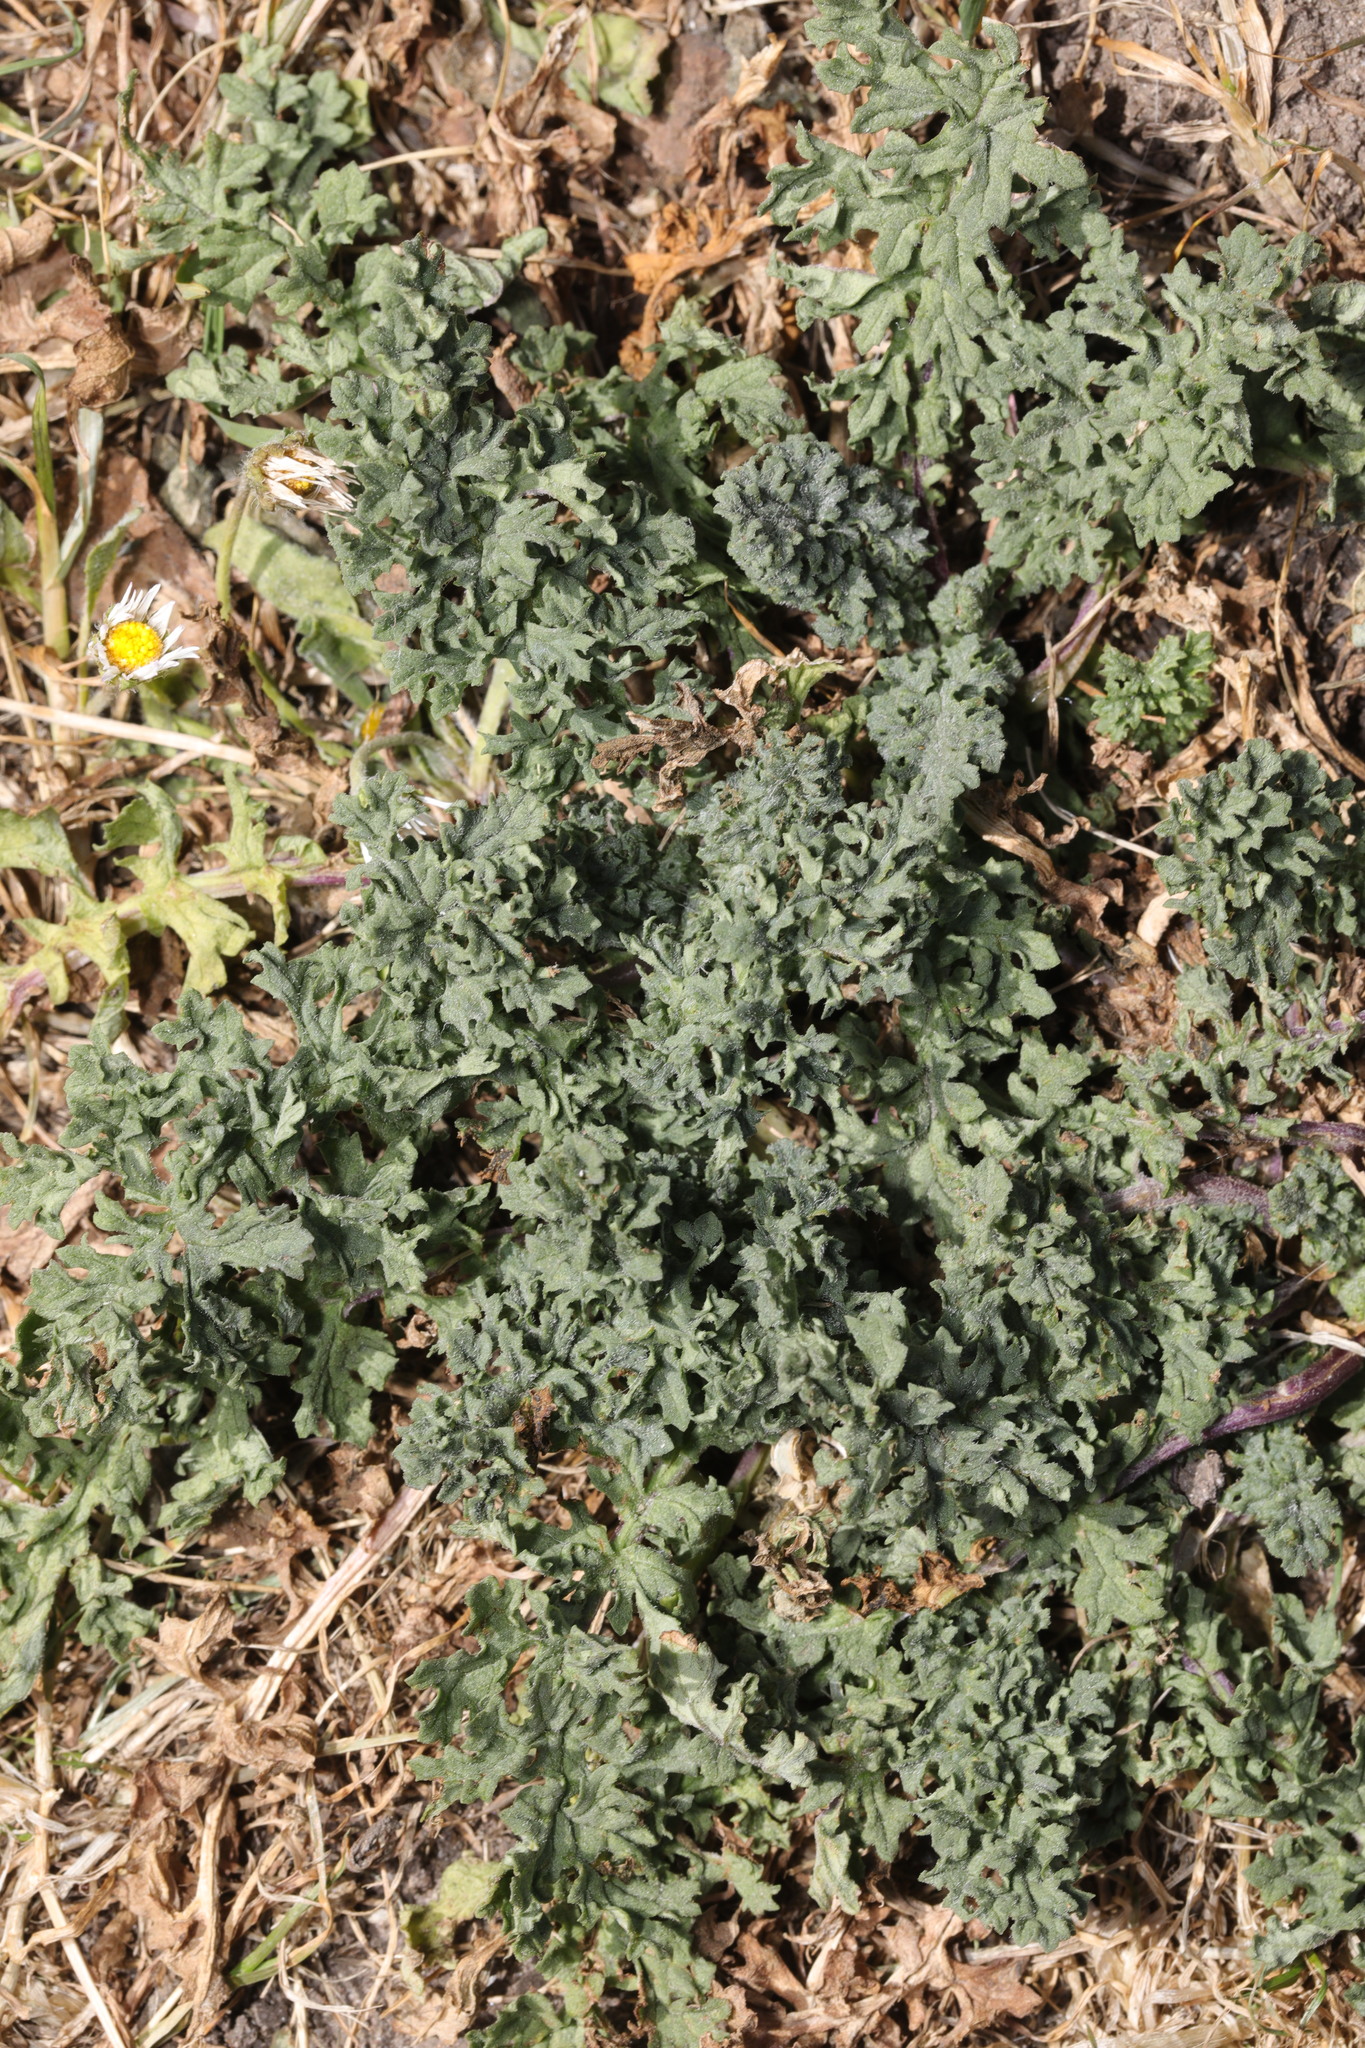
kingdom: Plantae
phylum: Tracheophyta
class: Magnoliopsida
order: Asterales
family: Asteraceae
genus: Jacobaea
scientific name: Jacobaea vulgaris
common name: Stinking willie
